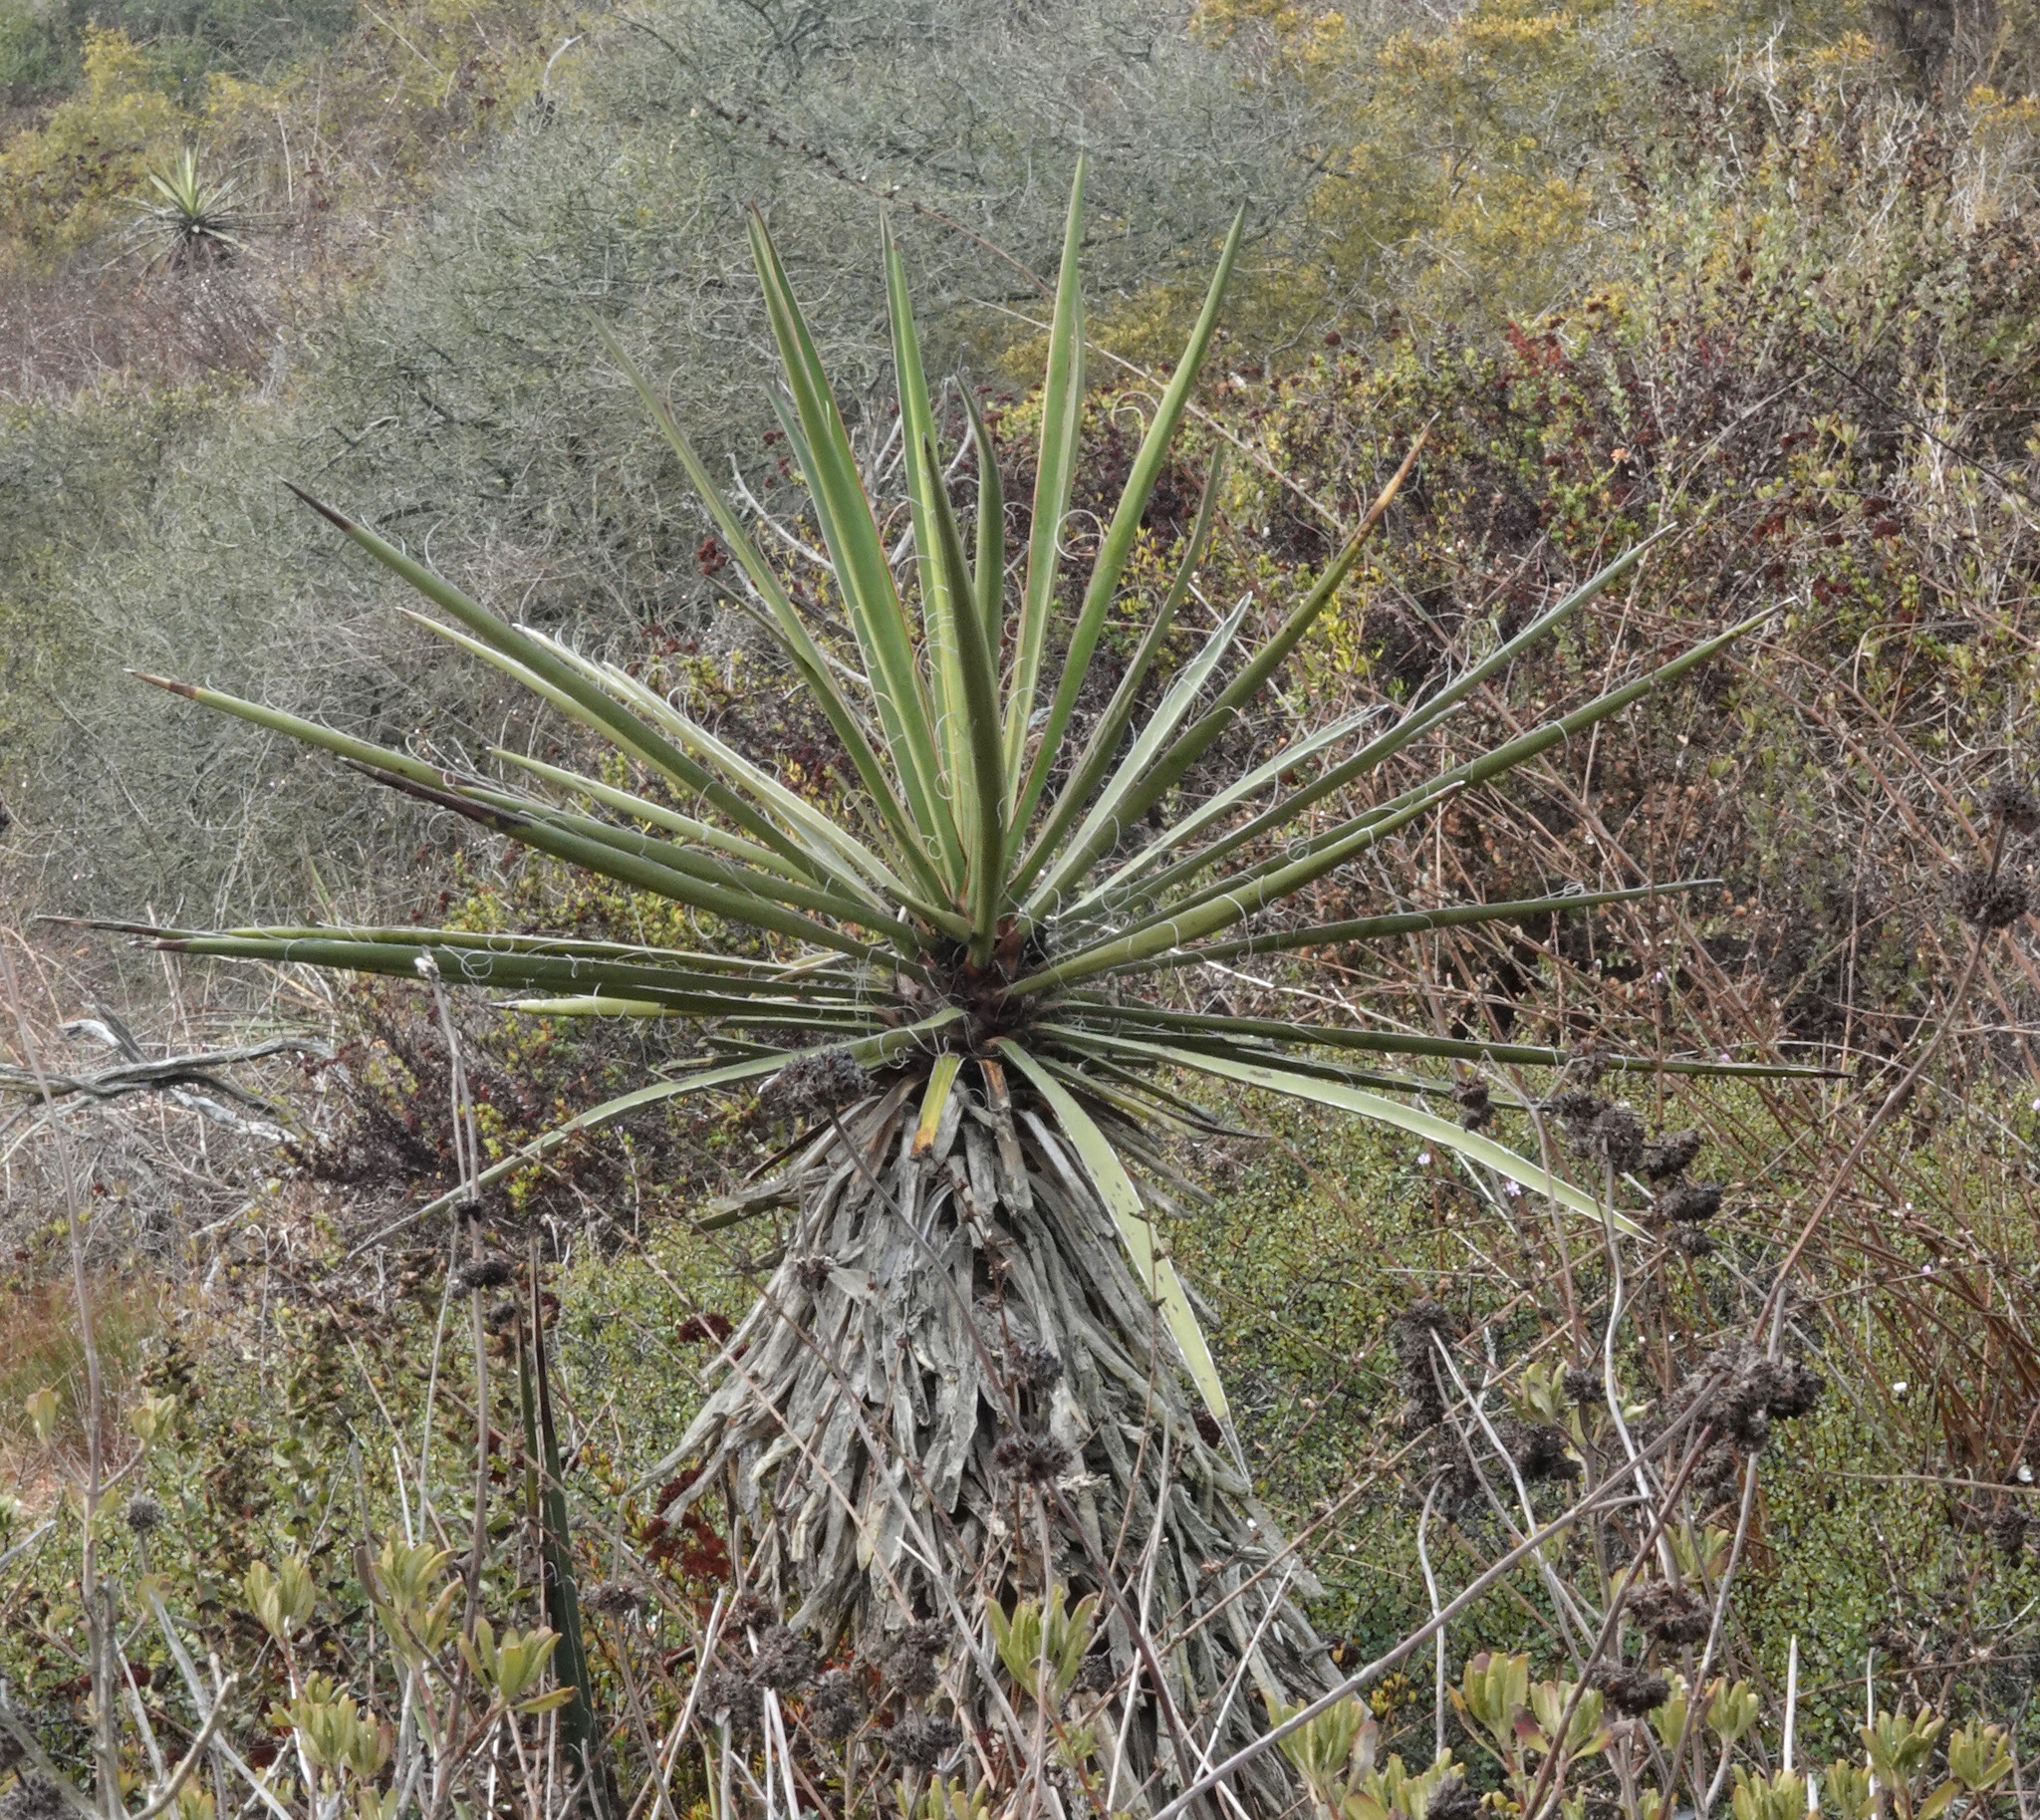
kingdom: Plantae
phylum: Tracheophyta
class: Liliopsida
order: Asparagales
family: Asparagaceae
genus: Yucca
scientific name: Yucca schidigera
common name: Mojave yucca
